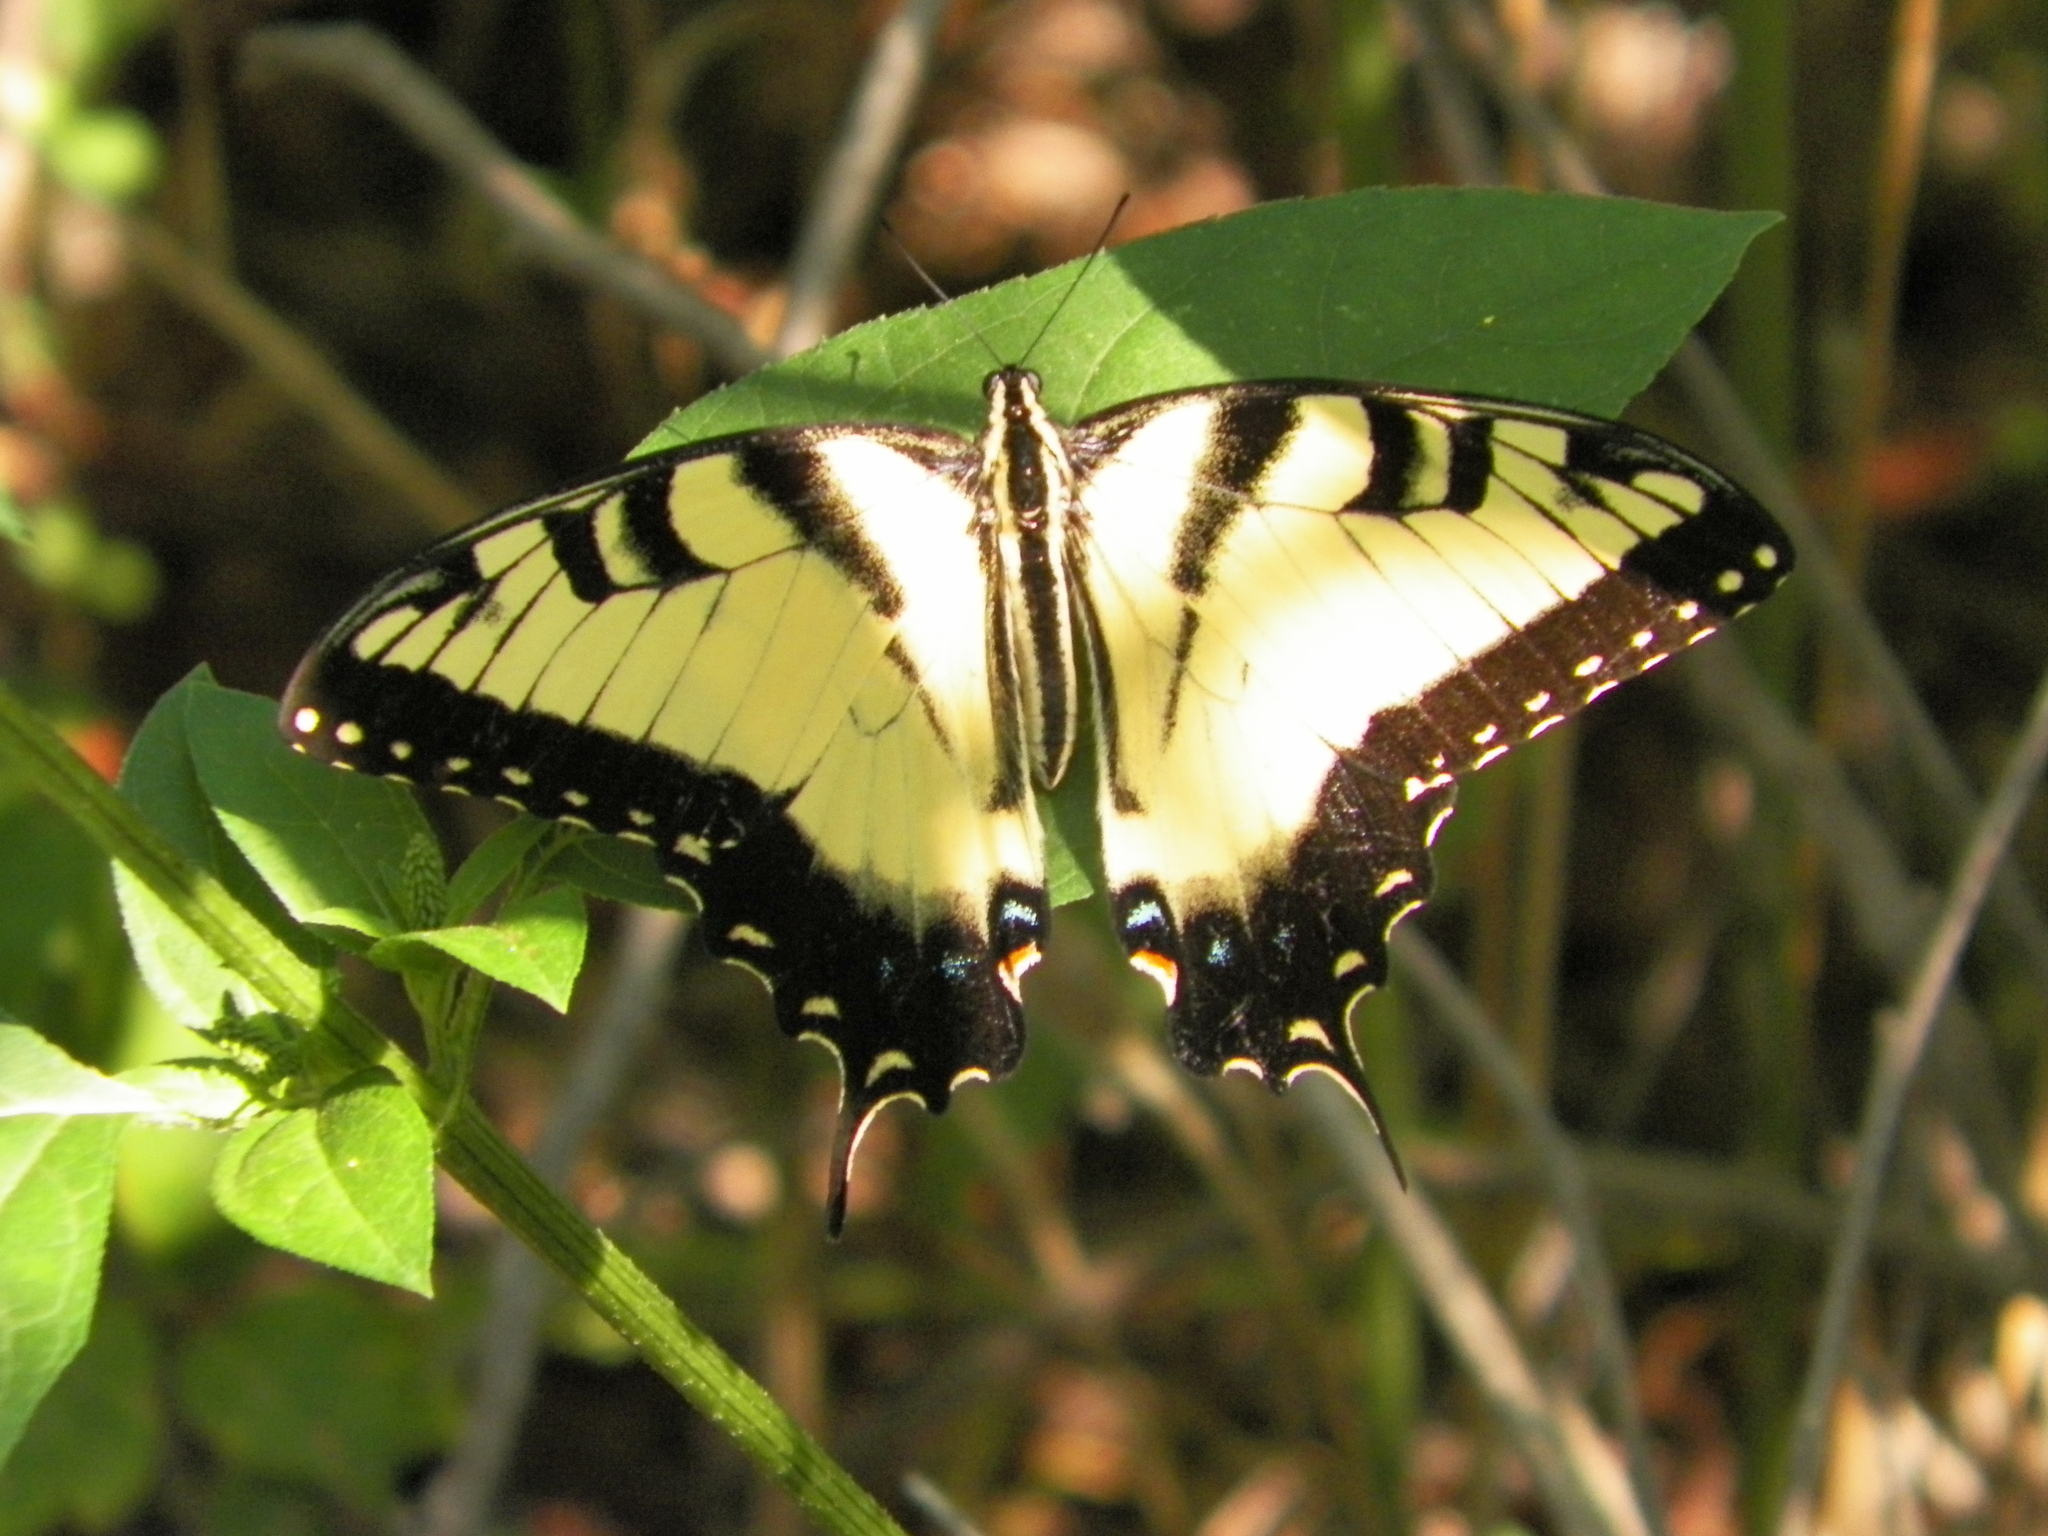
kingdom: Animalia
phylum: Arthropoda
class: Insecta
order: Lepidoptera
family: Papilionidae
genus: Papilio
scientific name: Papilio glaucus
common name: Tiger swallowtail
